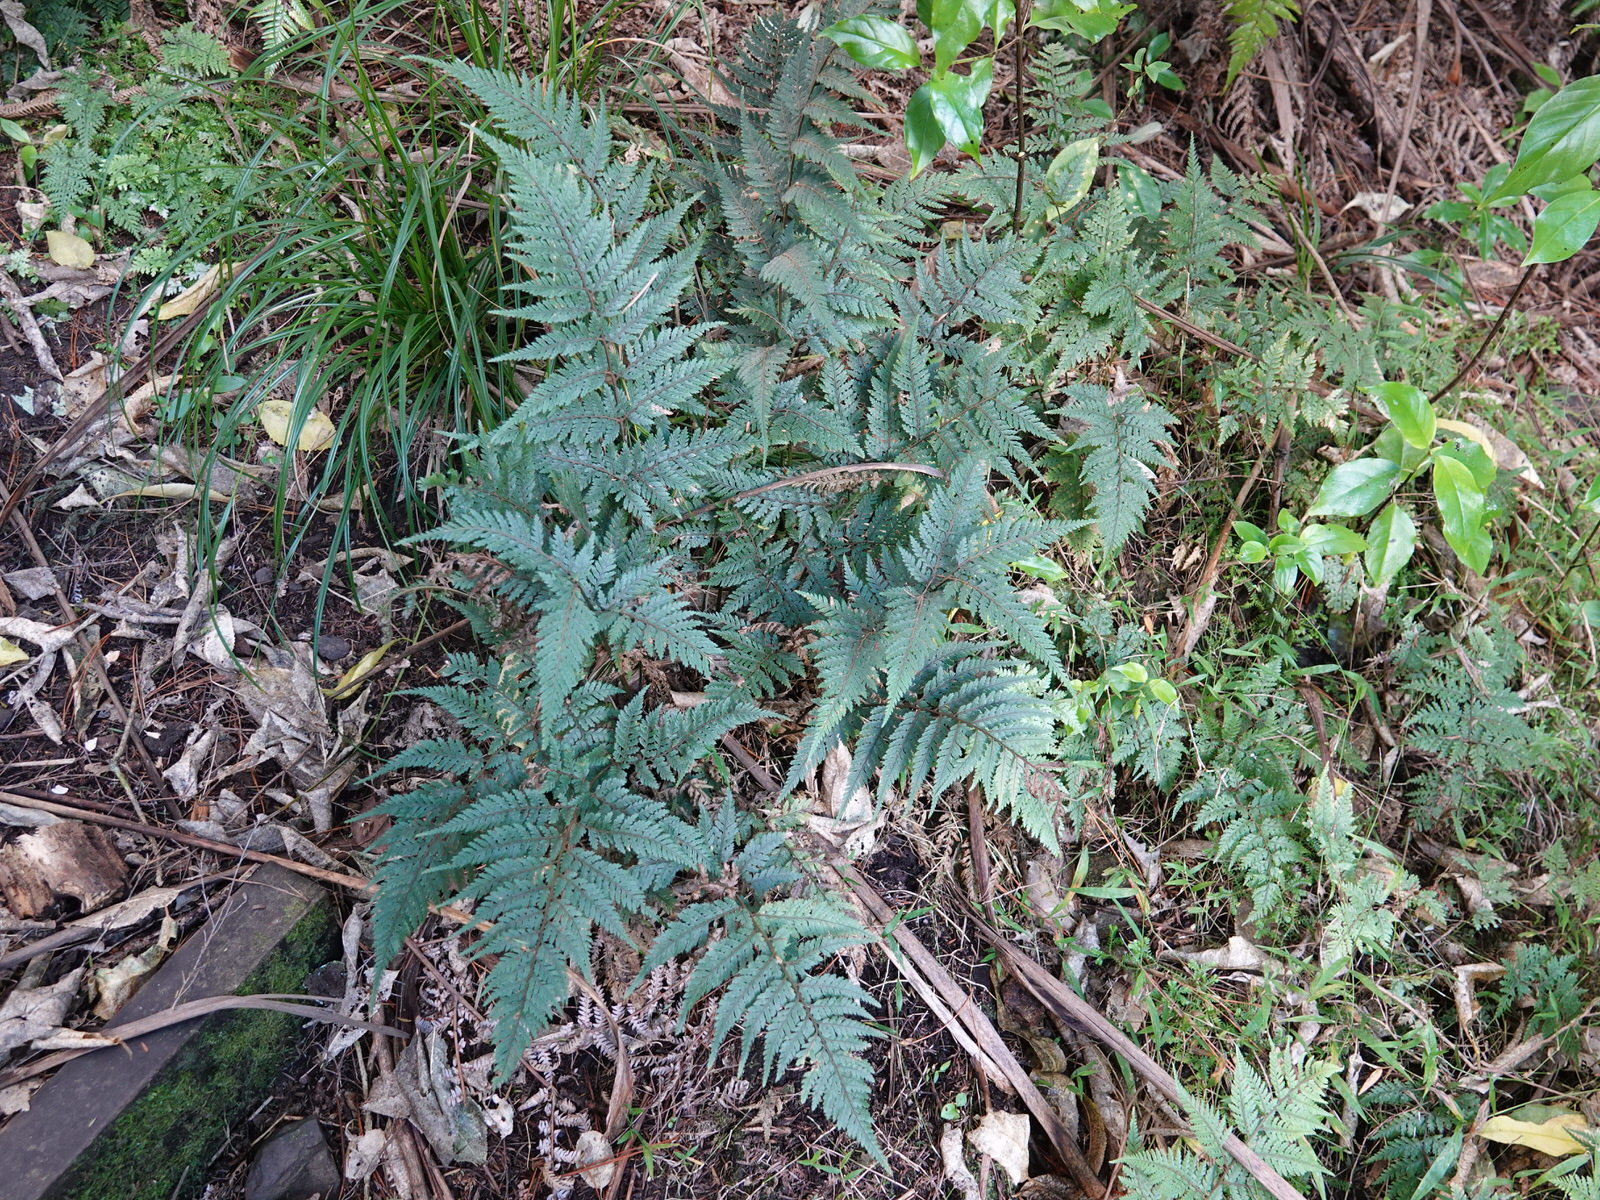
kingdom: Plantae
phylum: Tracheophyta
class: Polypodiopsida
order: Polypodiales
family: Dryopteridaceae
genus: Parapolystichum
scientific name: Parapolystichum glabellum
